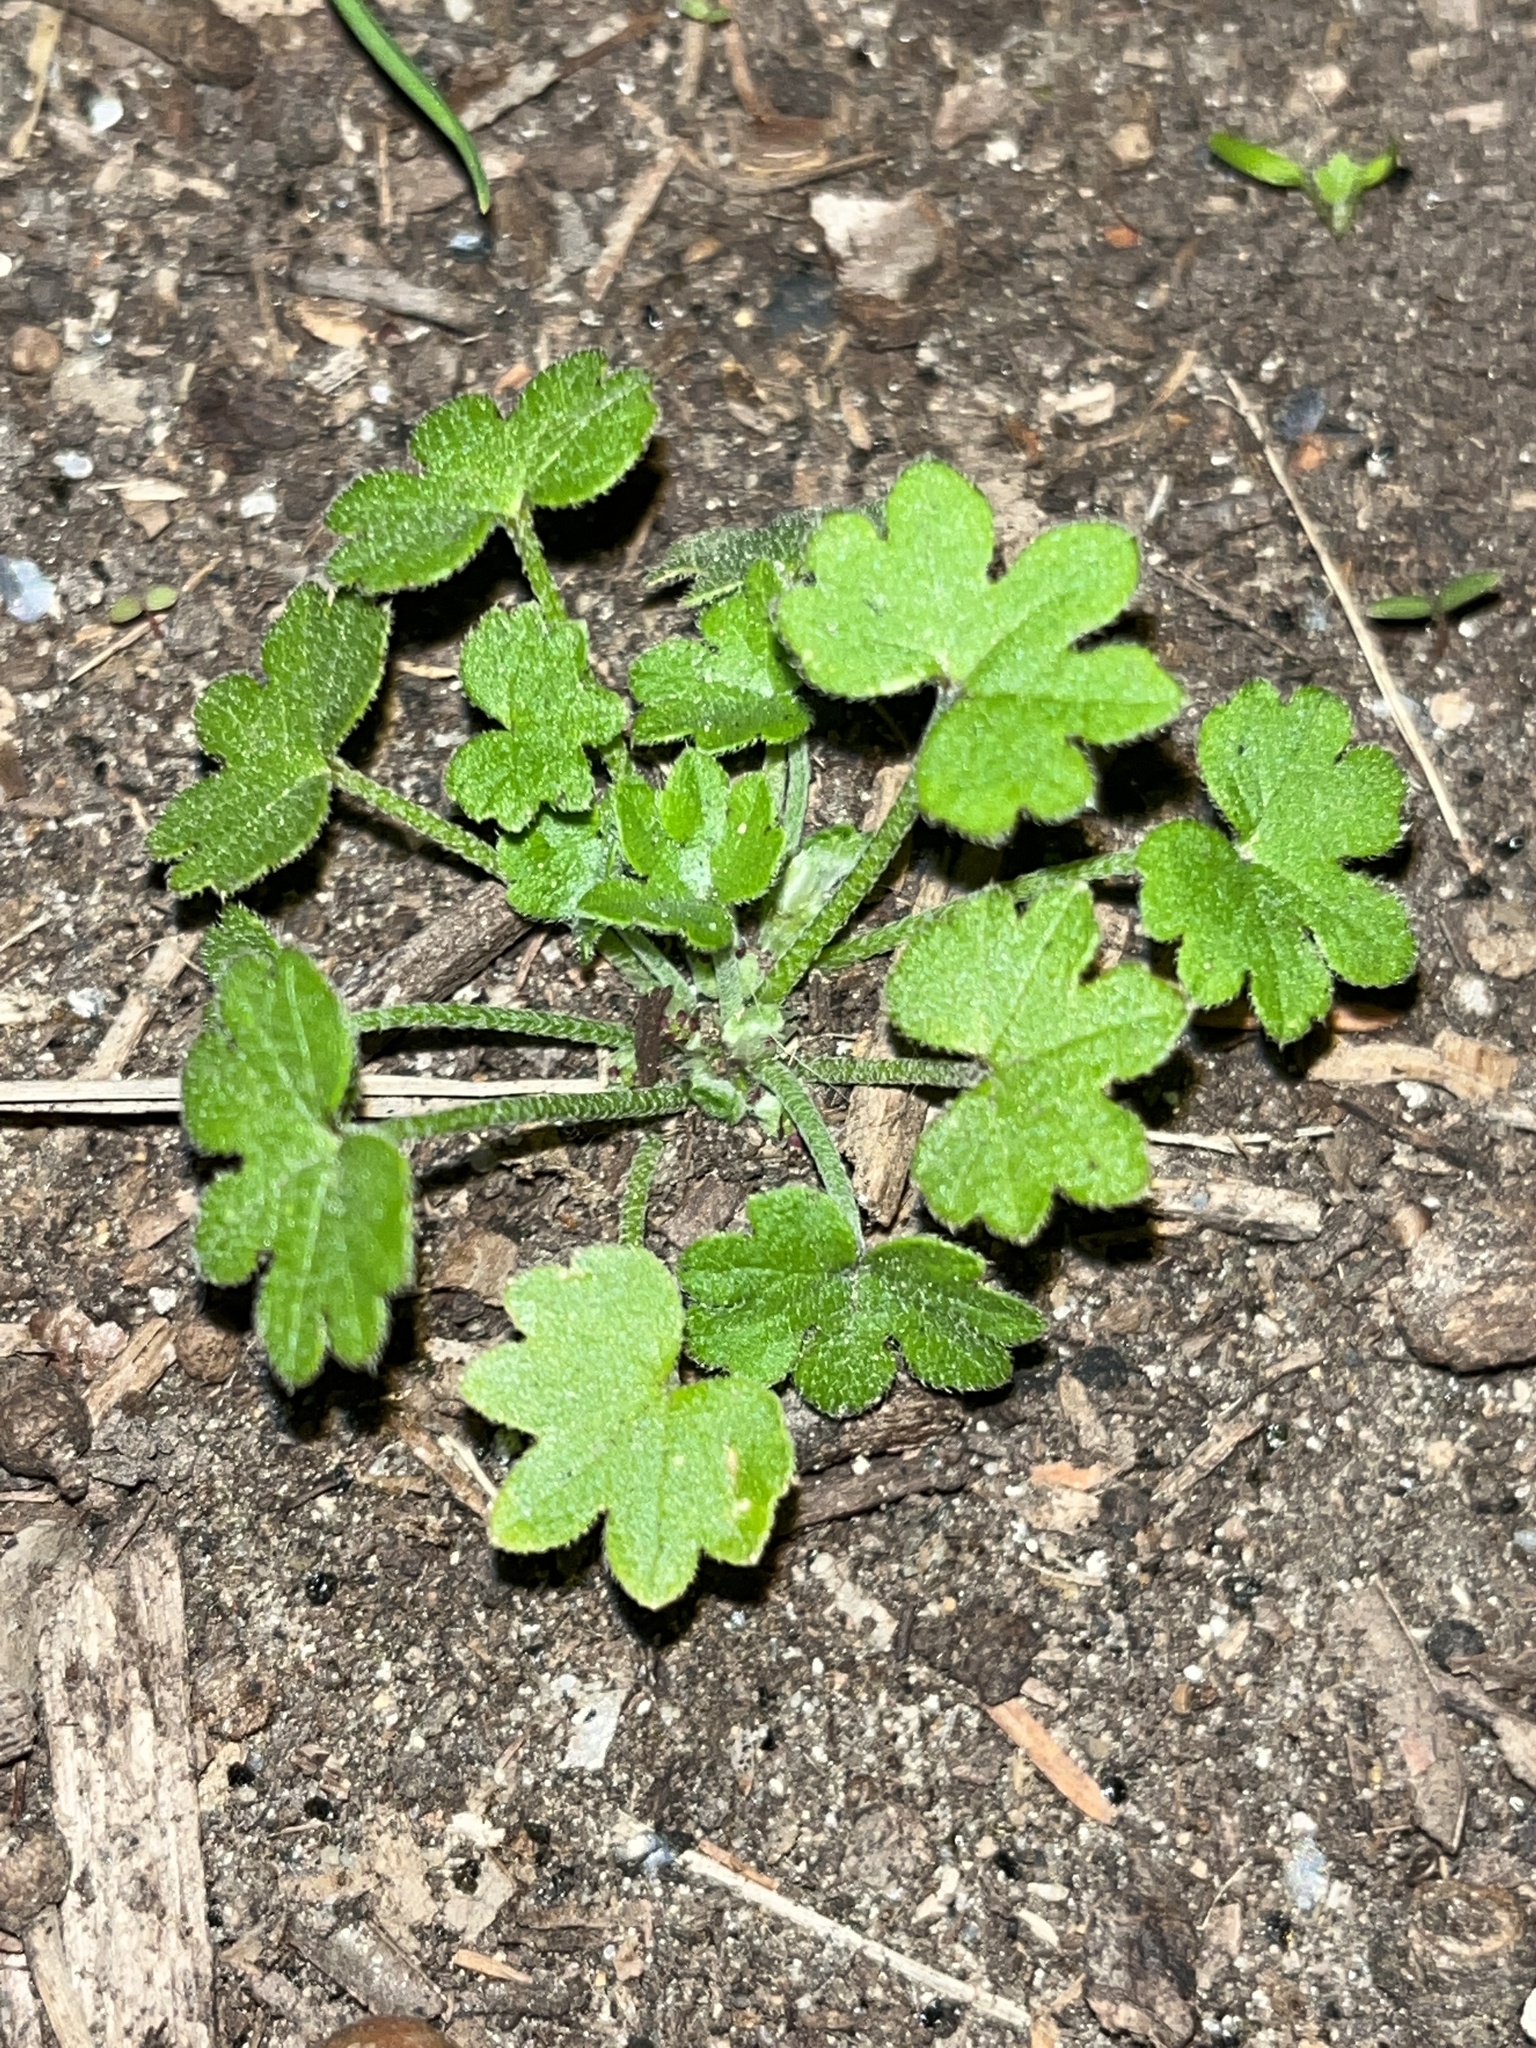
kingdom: Plantae
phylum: Tracheophyta
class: Magnoliopsida
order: Apiales
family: Apiaceae
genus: Bowlesia
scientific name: Bowlesia incana
